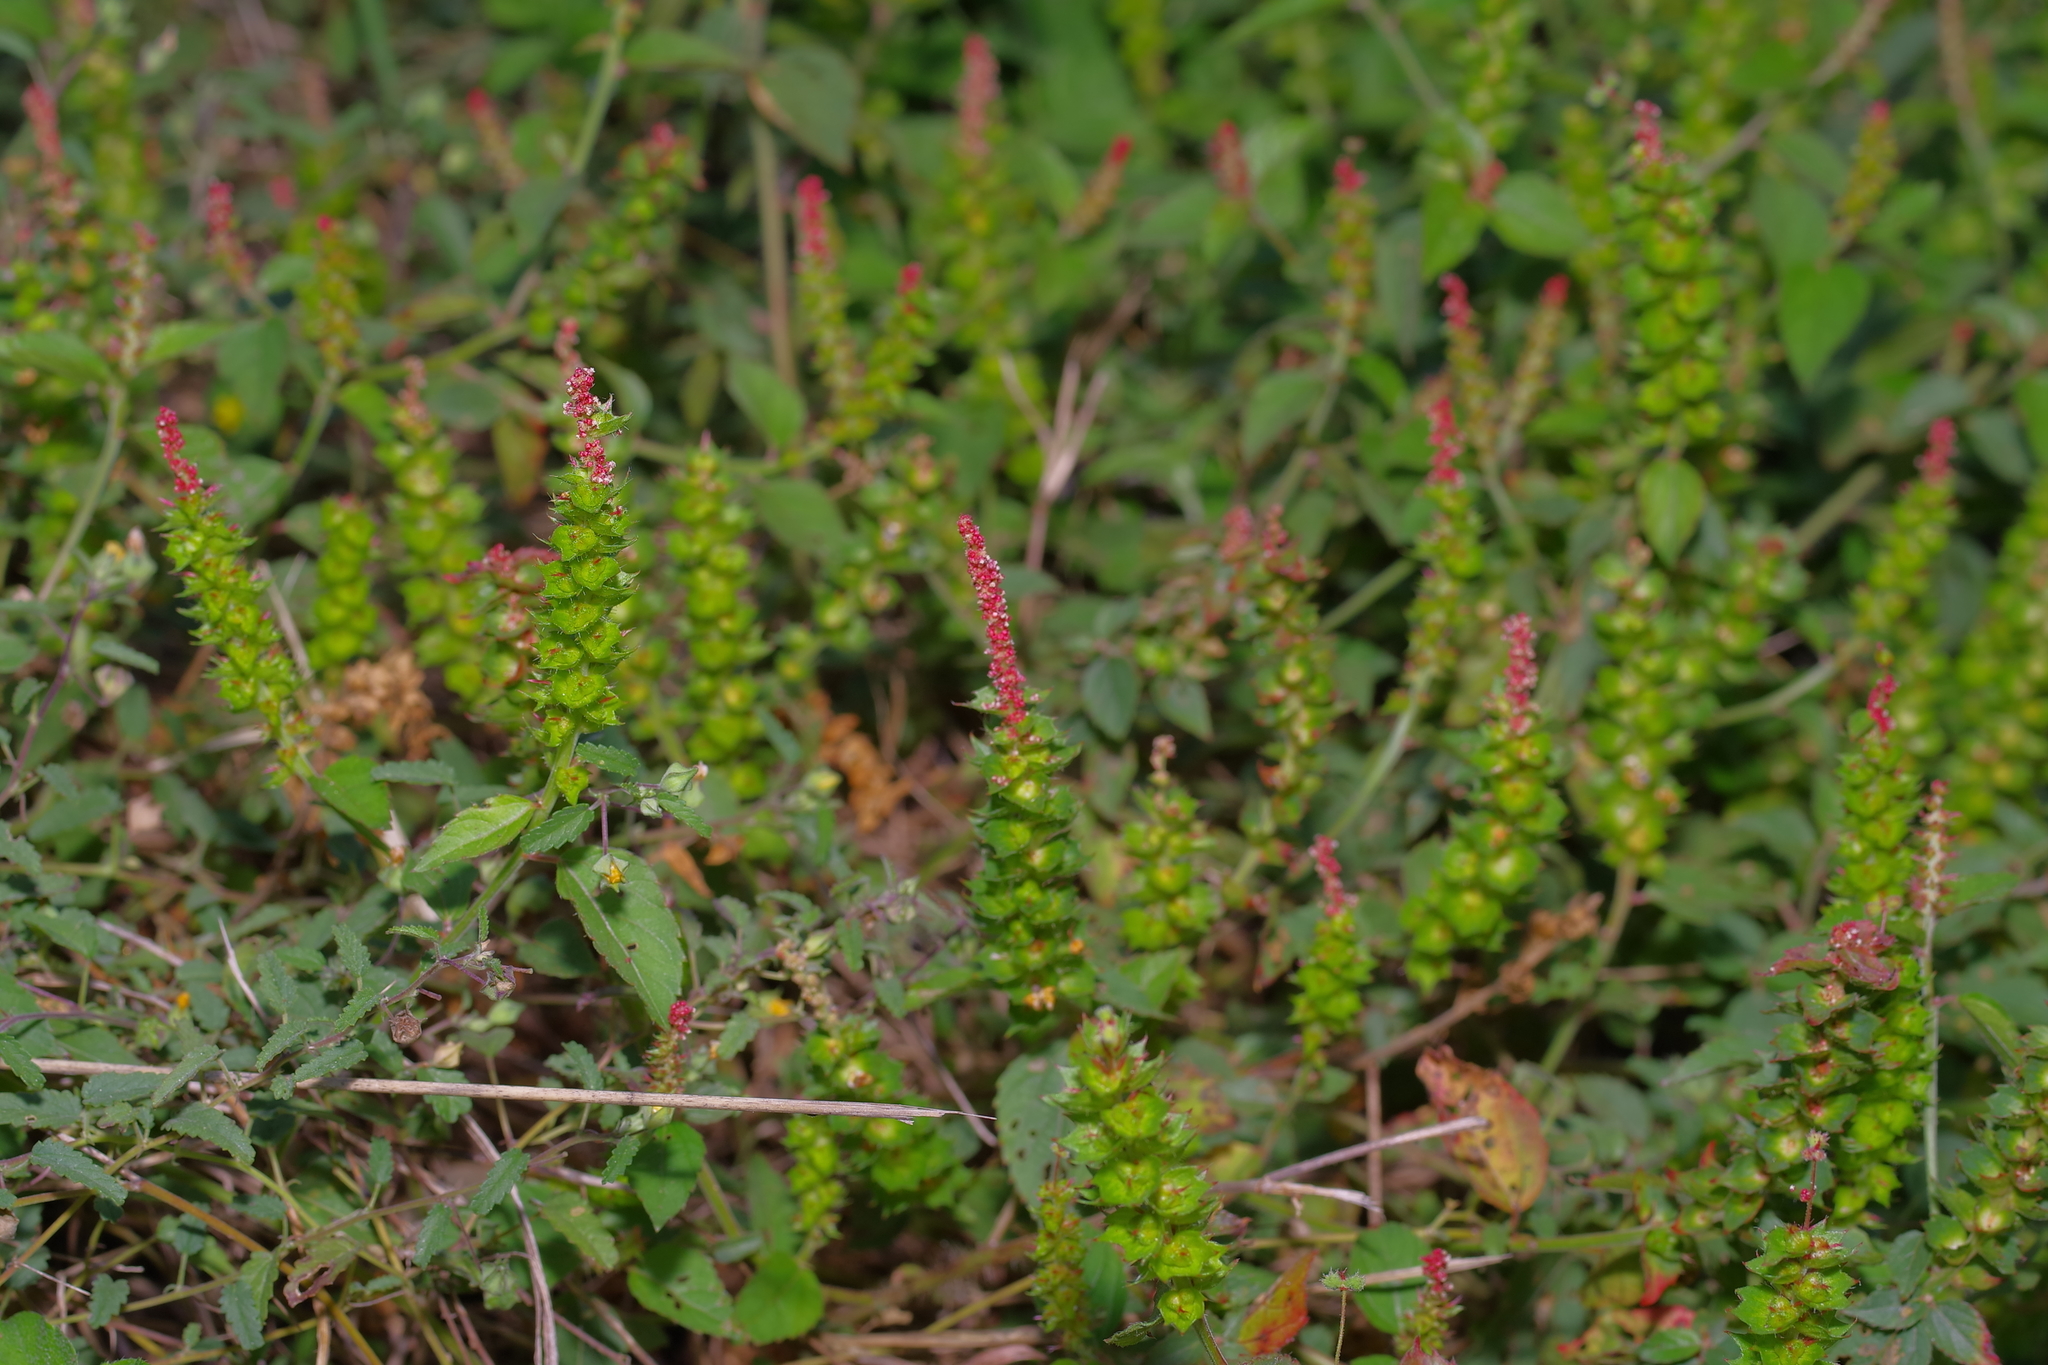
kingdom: Plantae
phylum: Tracheophyta
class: Magnoliopsida
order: Malpighiales
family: Euphorbiaceae
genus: Acalypha
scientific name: Acalypha phleoides
